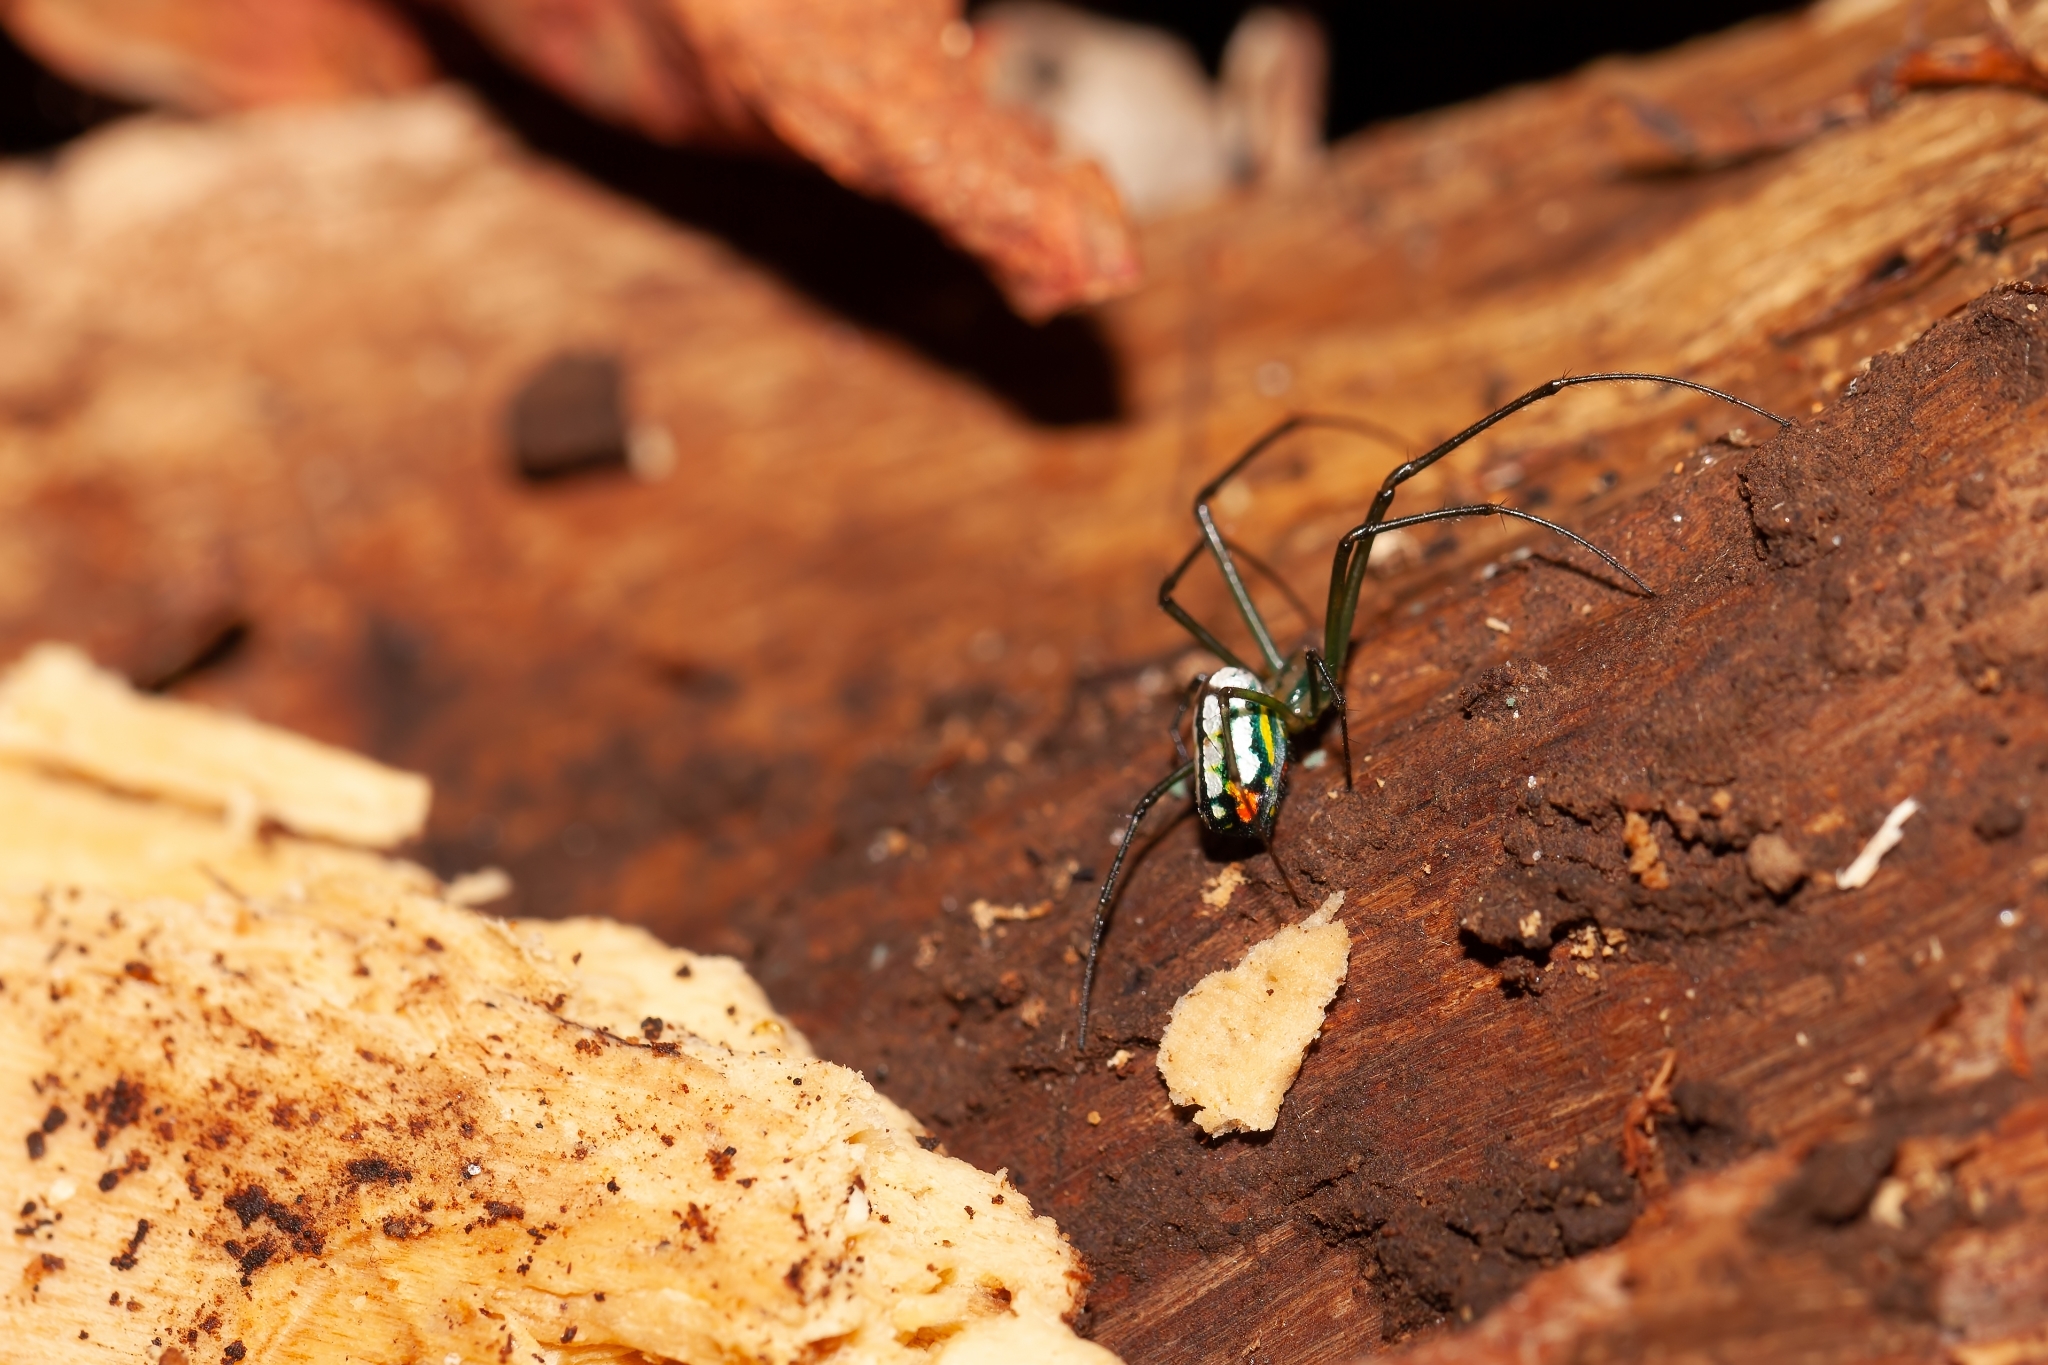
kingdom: Animalia
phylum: Arthropoda
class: Arachnida
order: Araneae
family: Tetragnathidae
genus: Leucauge
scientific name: Leucauge argyrobapta
